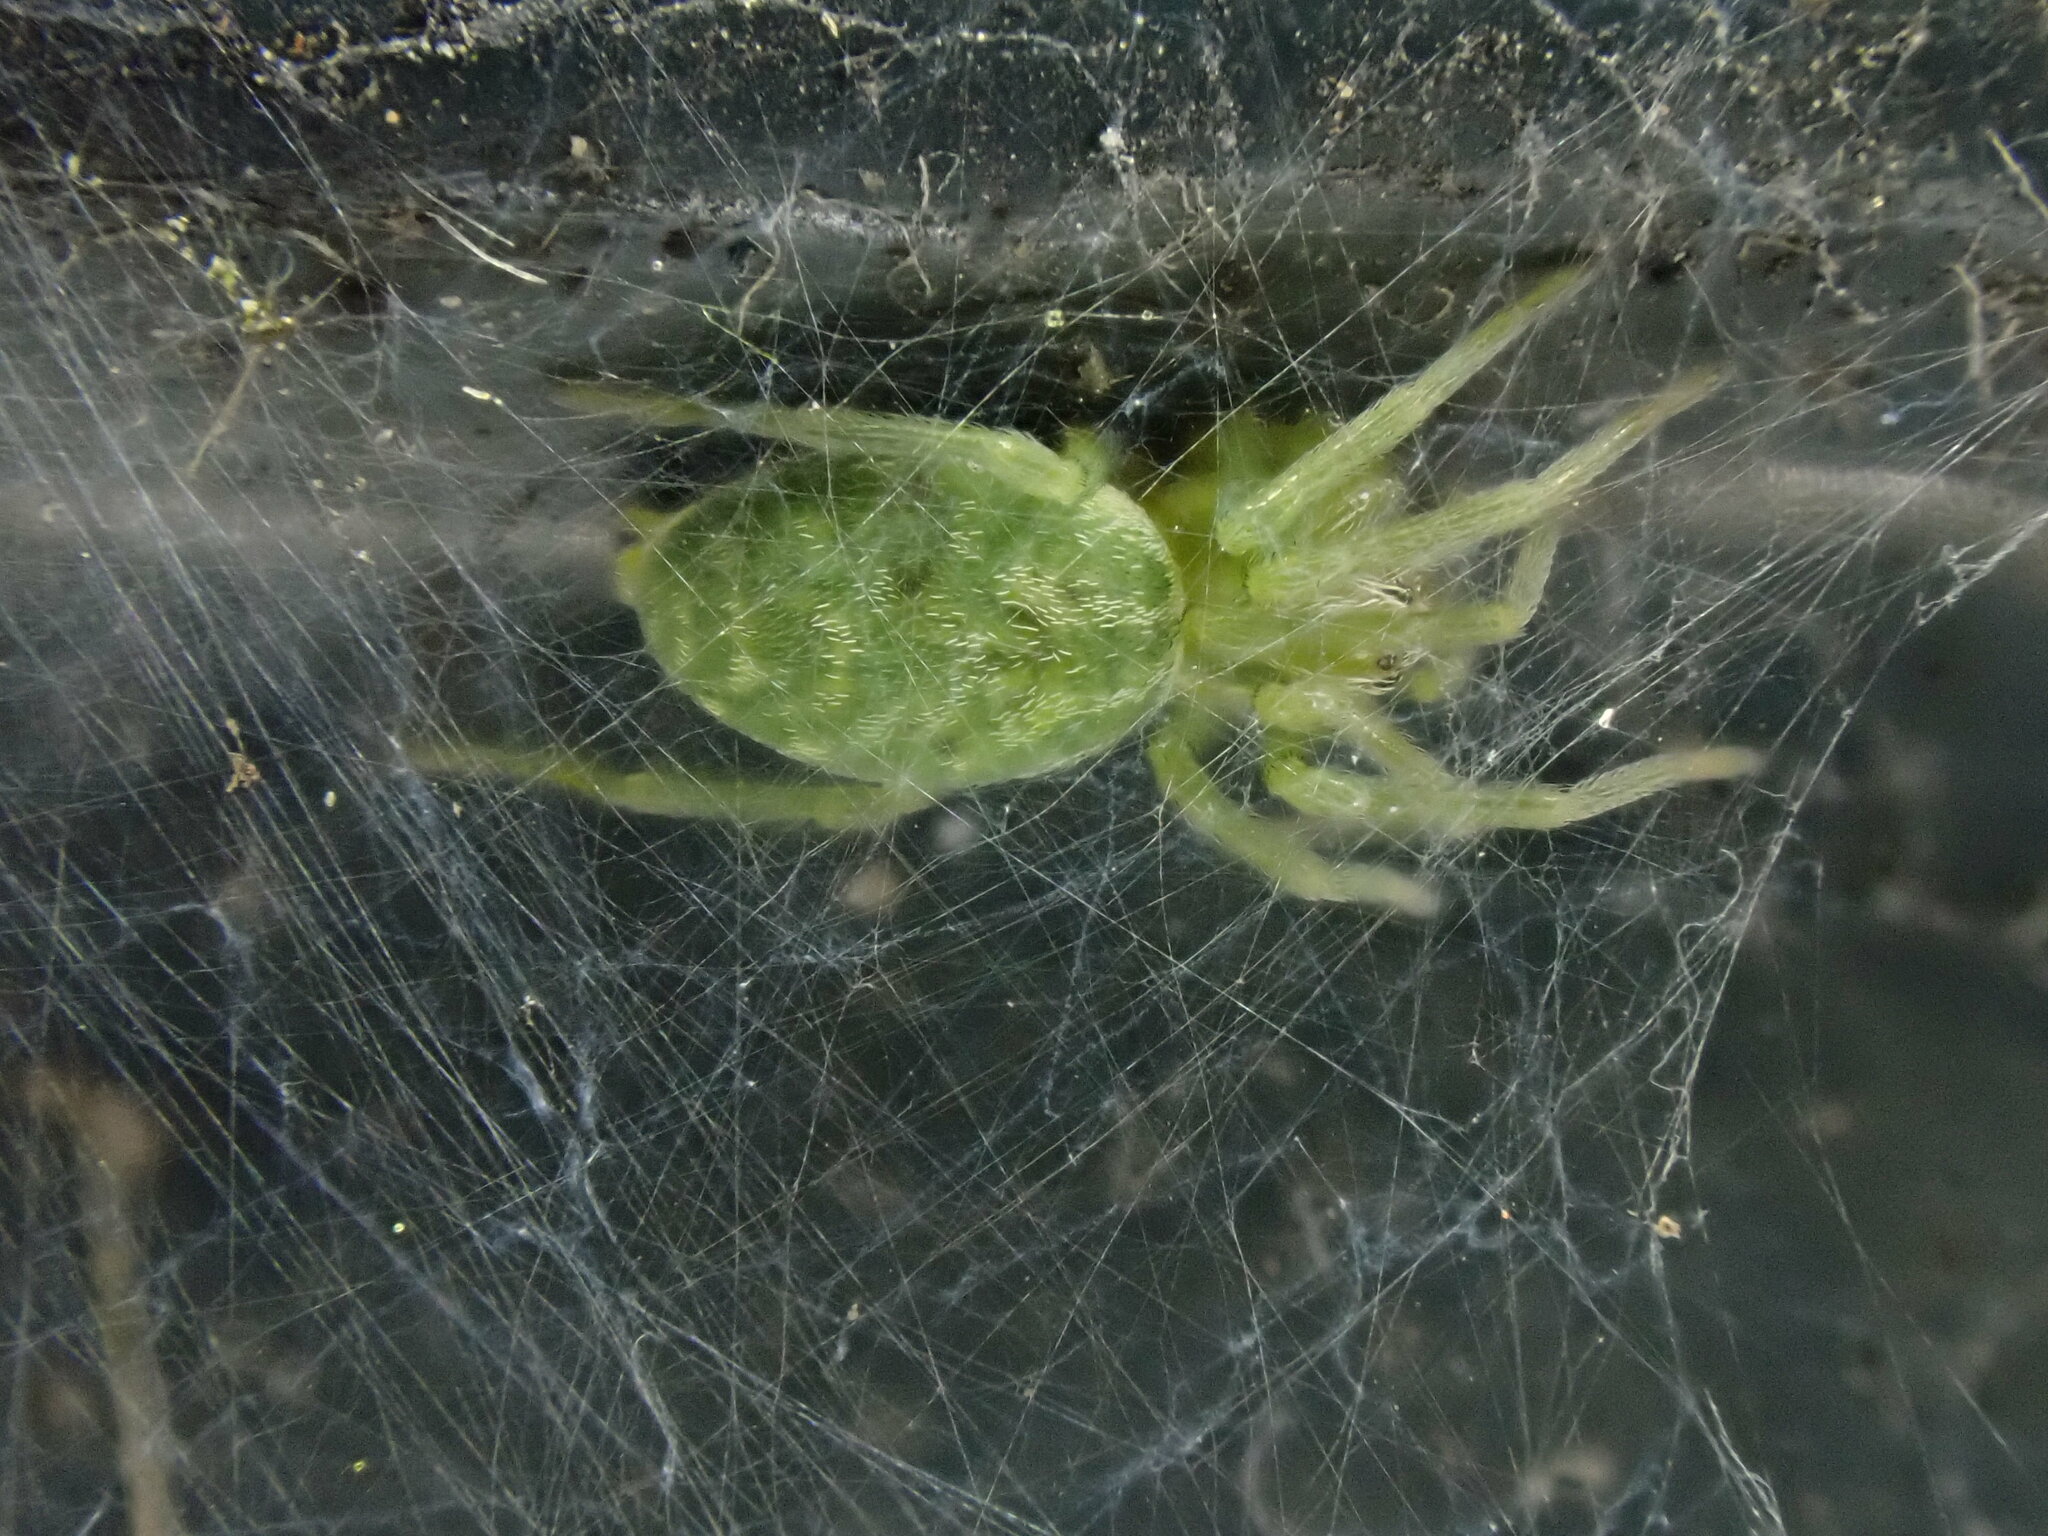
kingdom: Animalia
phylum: Arthropoda
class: Arachnida
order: Araneae
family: Dictynidae
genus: Nigma
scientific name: Nigma walckenaeri
